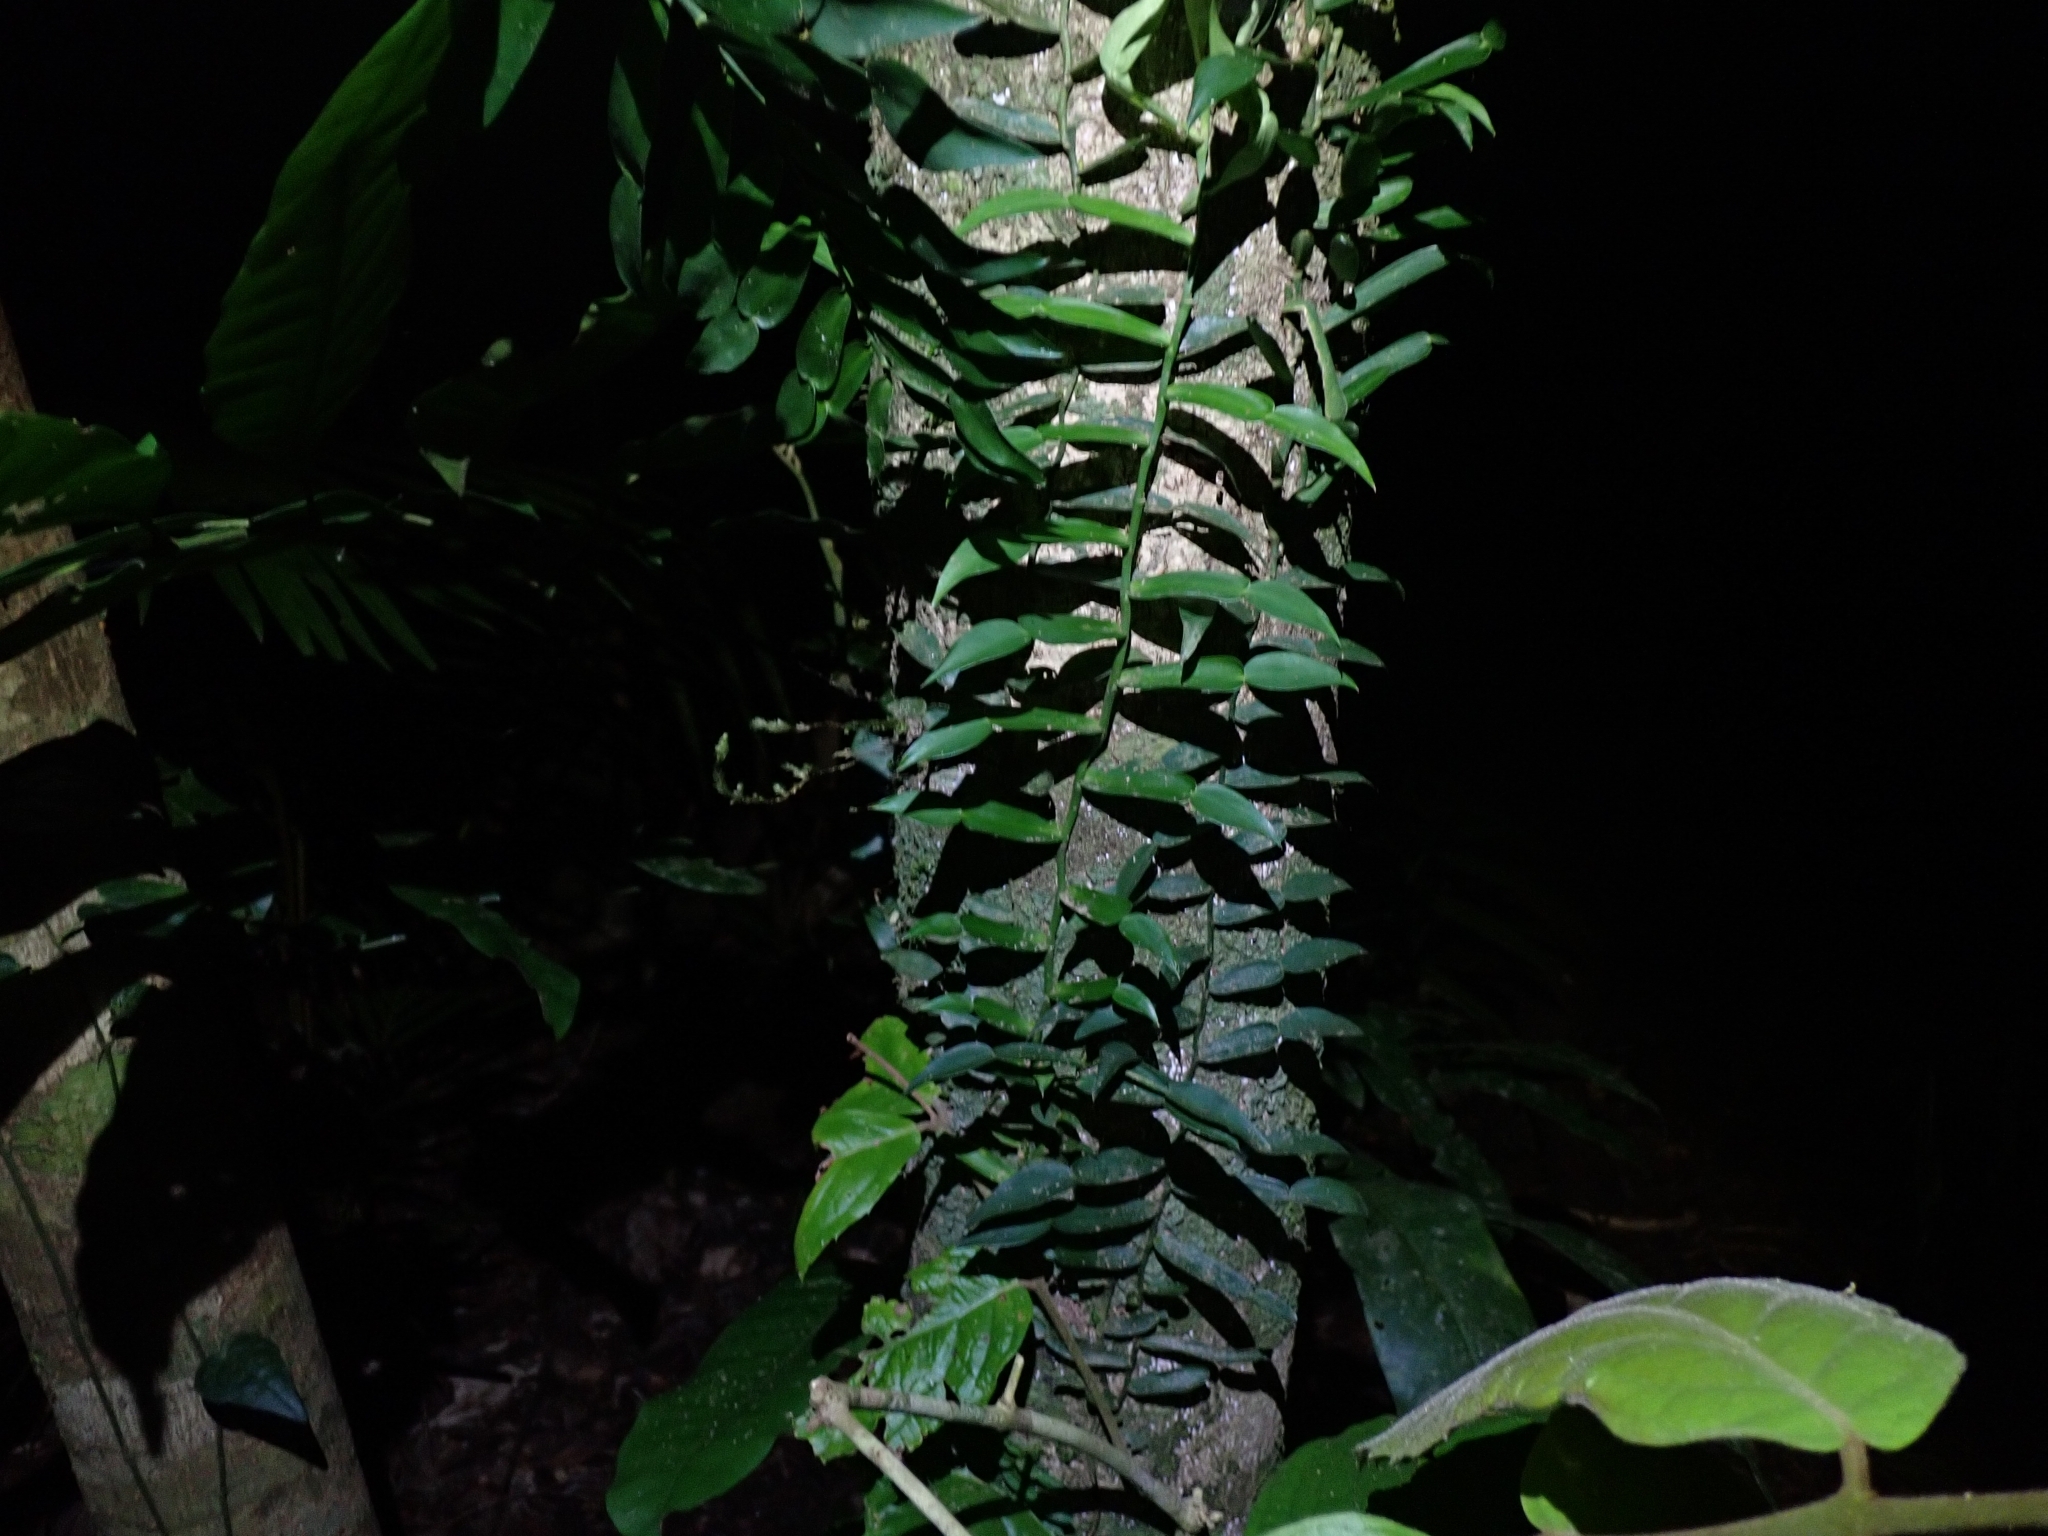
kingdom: Plantae
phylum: Tracheophyta
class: Liliopsida
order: Alismatales
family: Araceae
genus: Pothos
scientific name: Pothos longipes
